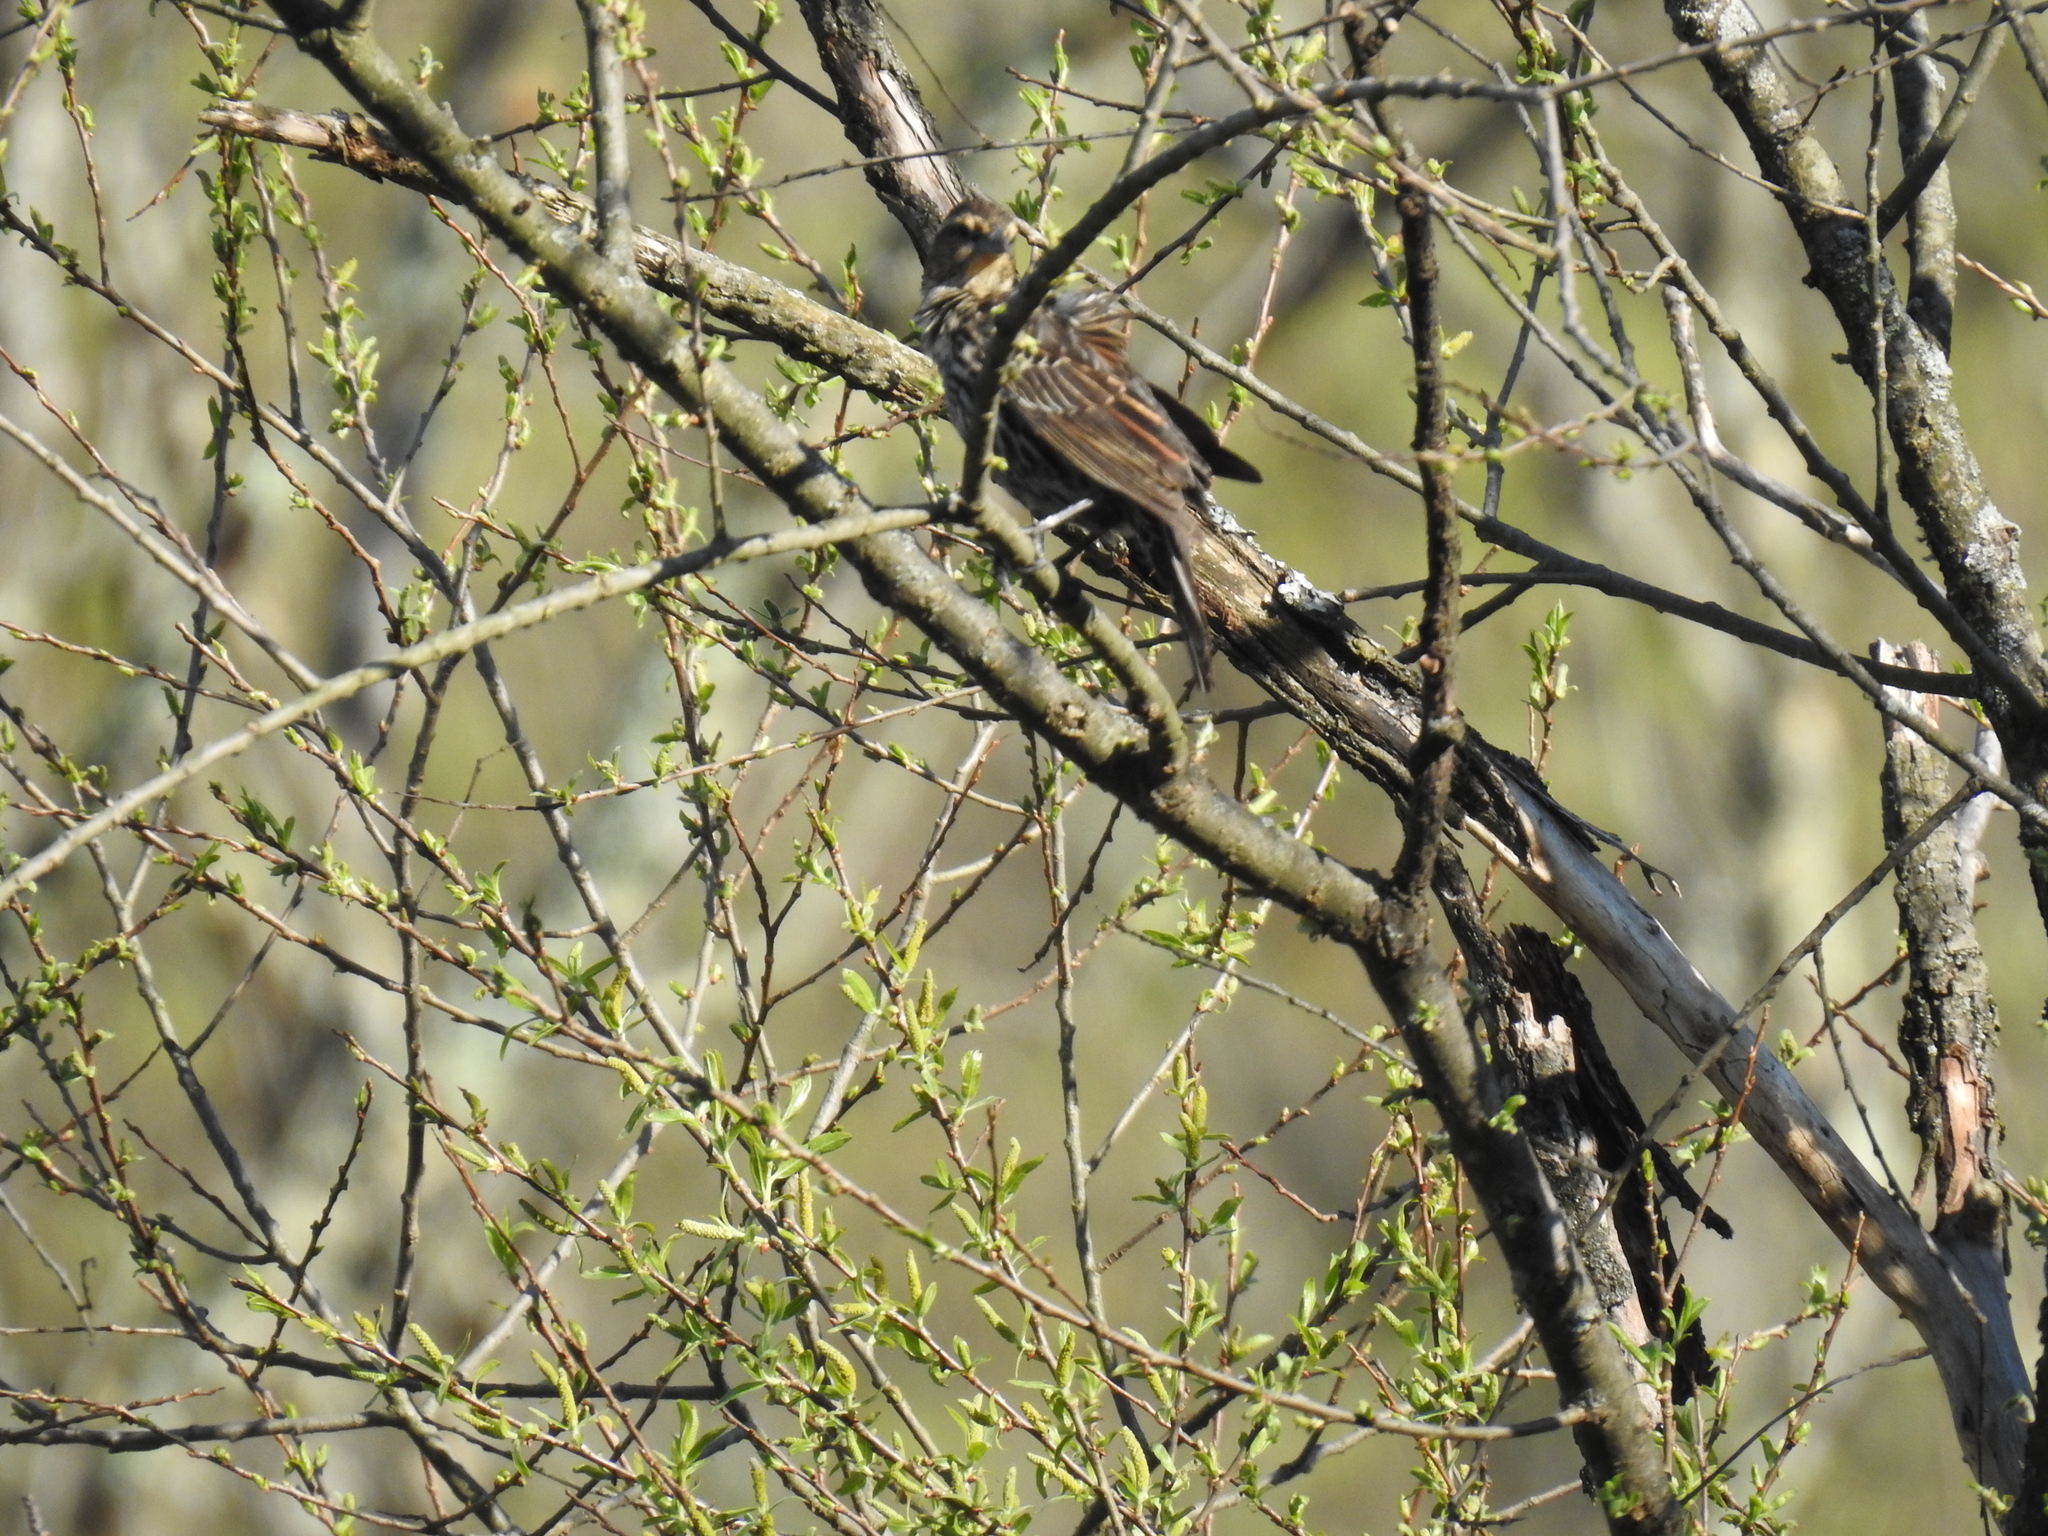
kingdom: Animalia
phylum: Chordata
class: Aves
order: Passeriformes
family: Icteridae
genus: Agelaius
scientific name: Agelaius phoeniceus
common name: Red-winged blackbird
